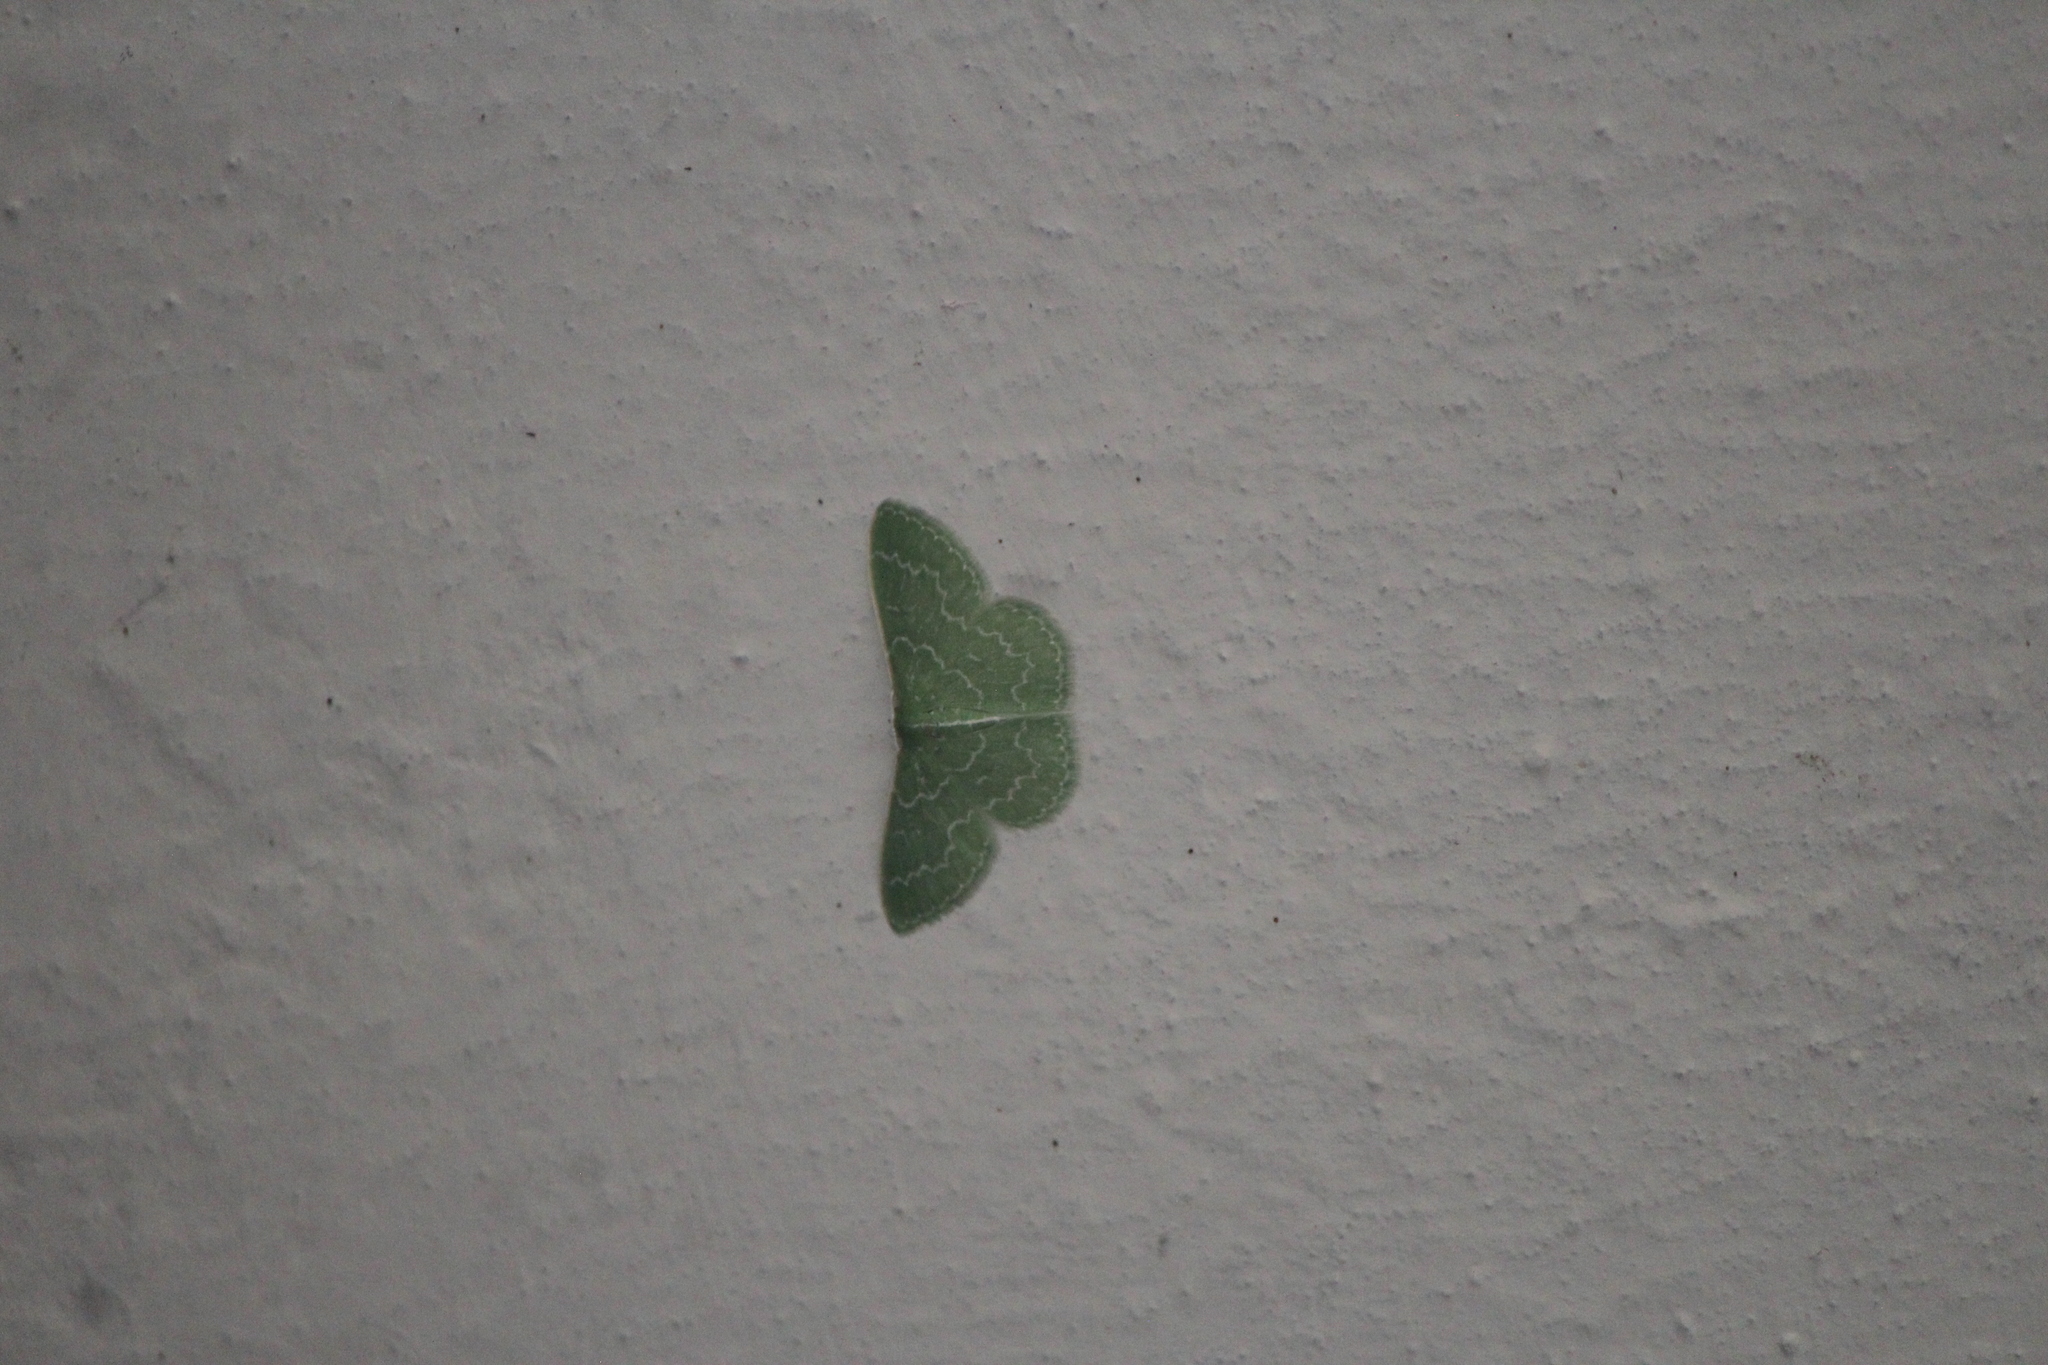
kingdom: Animalia
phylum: Arthropoda
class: Insecta
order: Lepidoptera
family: Geometridae
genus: Synchlora
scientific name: Synchlora frondaria
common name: Southern emerald
